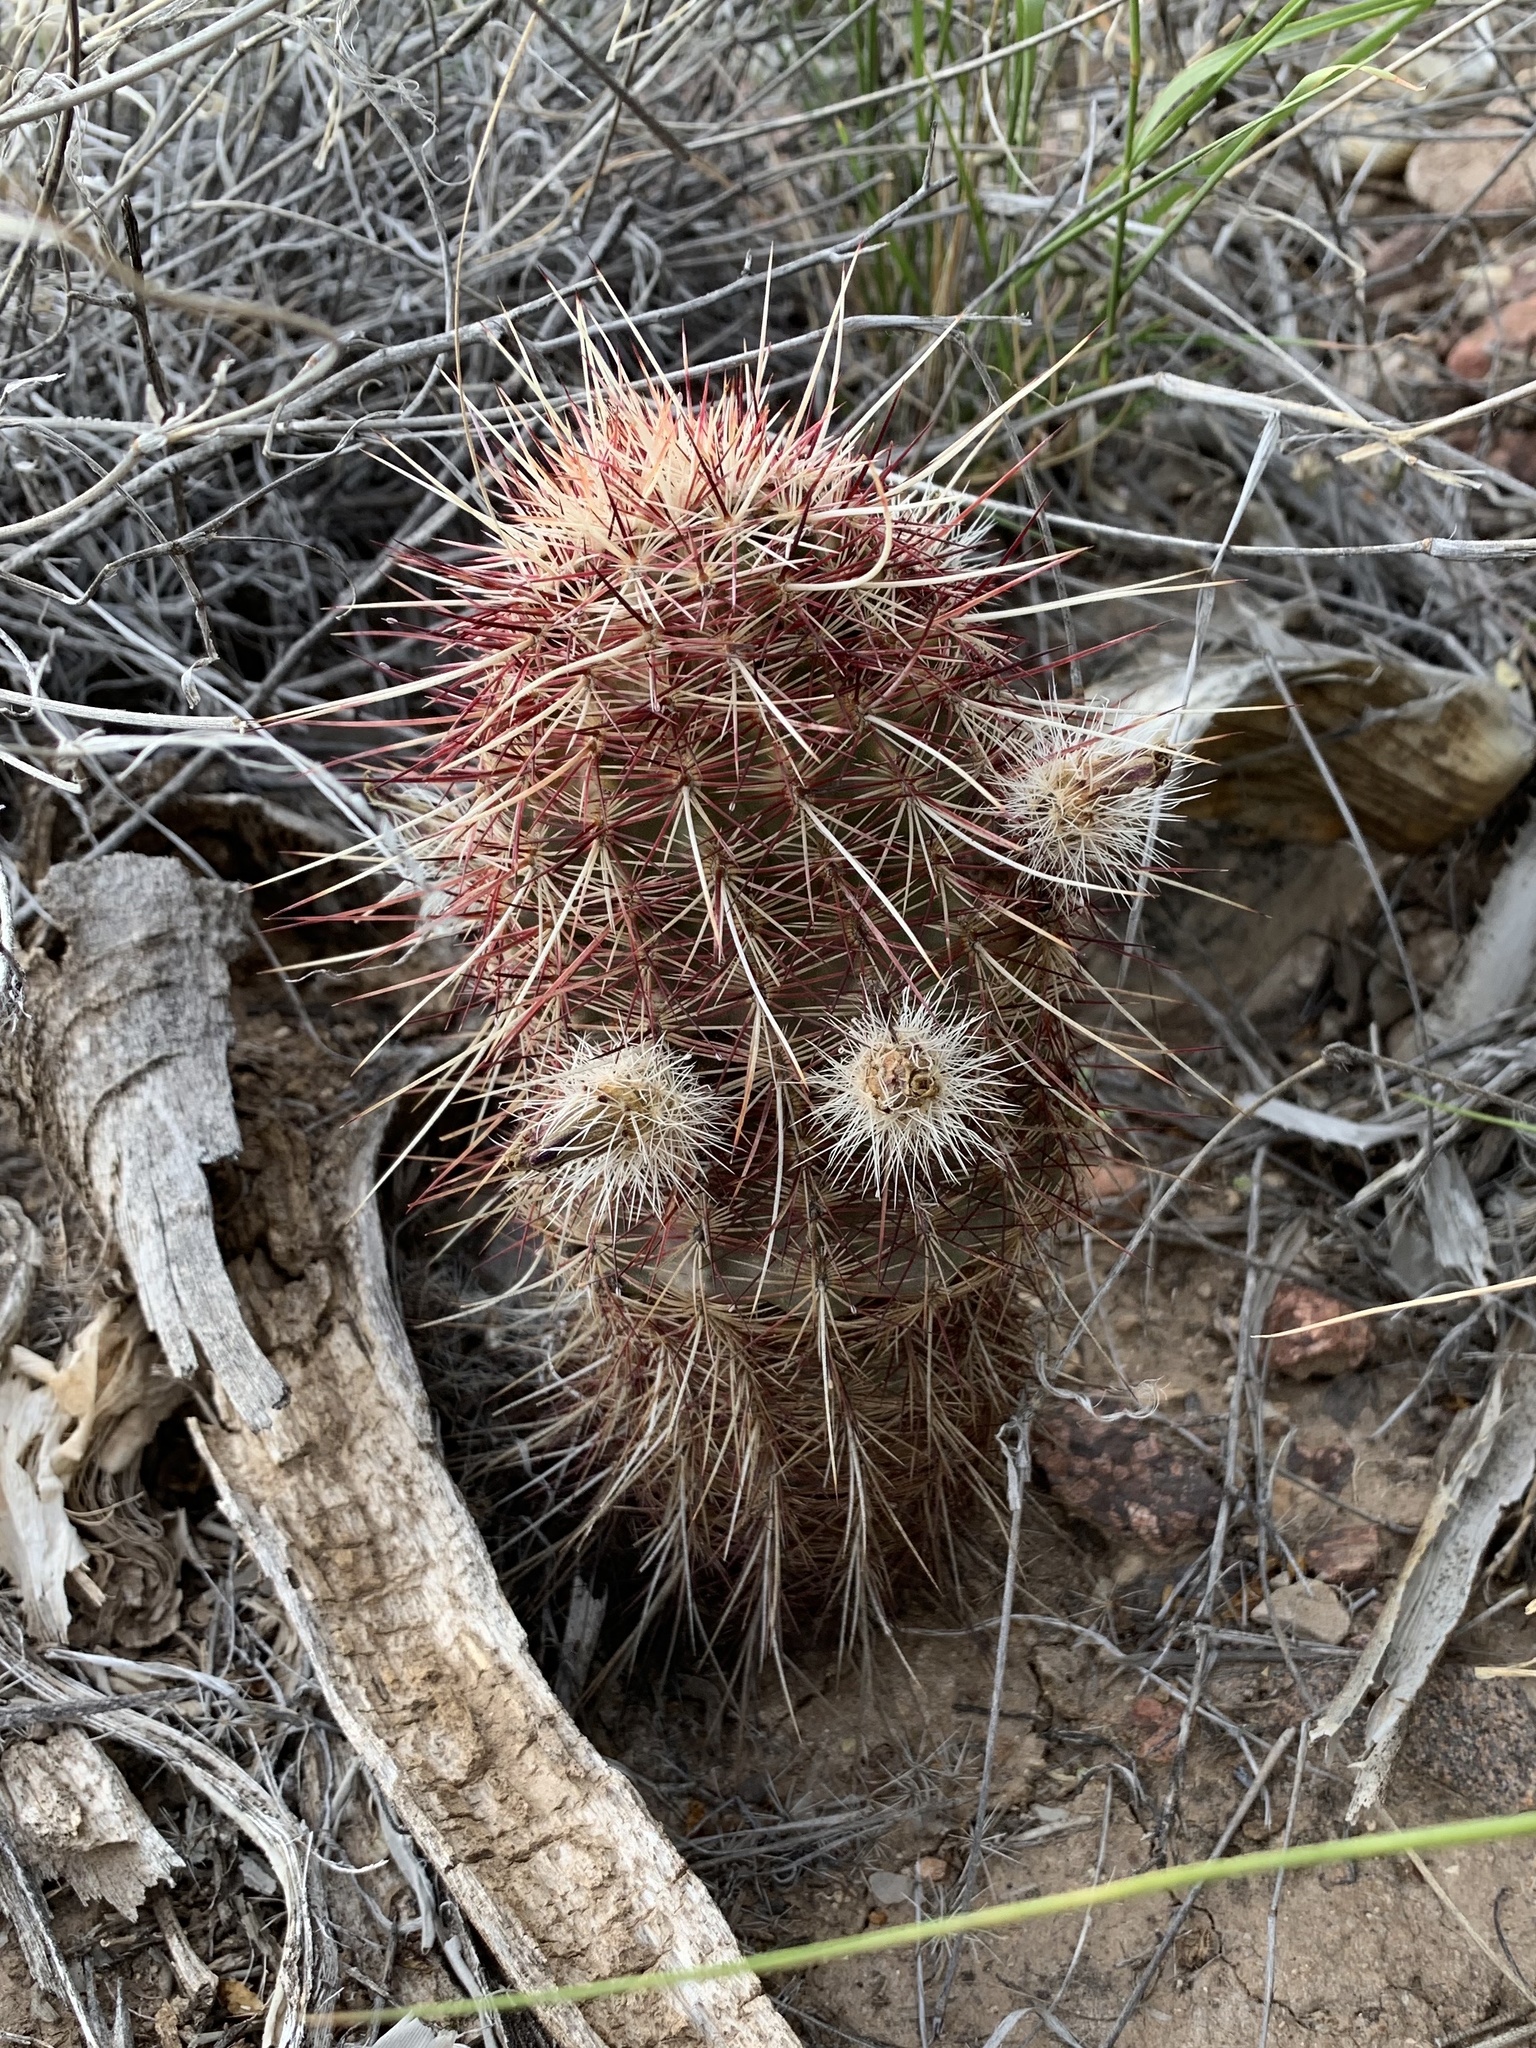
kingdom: Plantae
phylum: Tracheophyta
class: Magnoliopsida
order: Caryophyllales
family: Cactaceae
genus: Echinocereus
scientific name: Echinocereus viridiflorus
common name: Nylon hedgehog cactus
